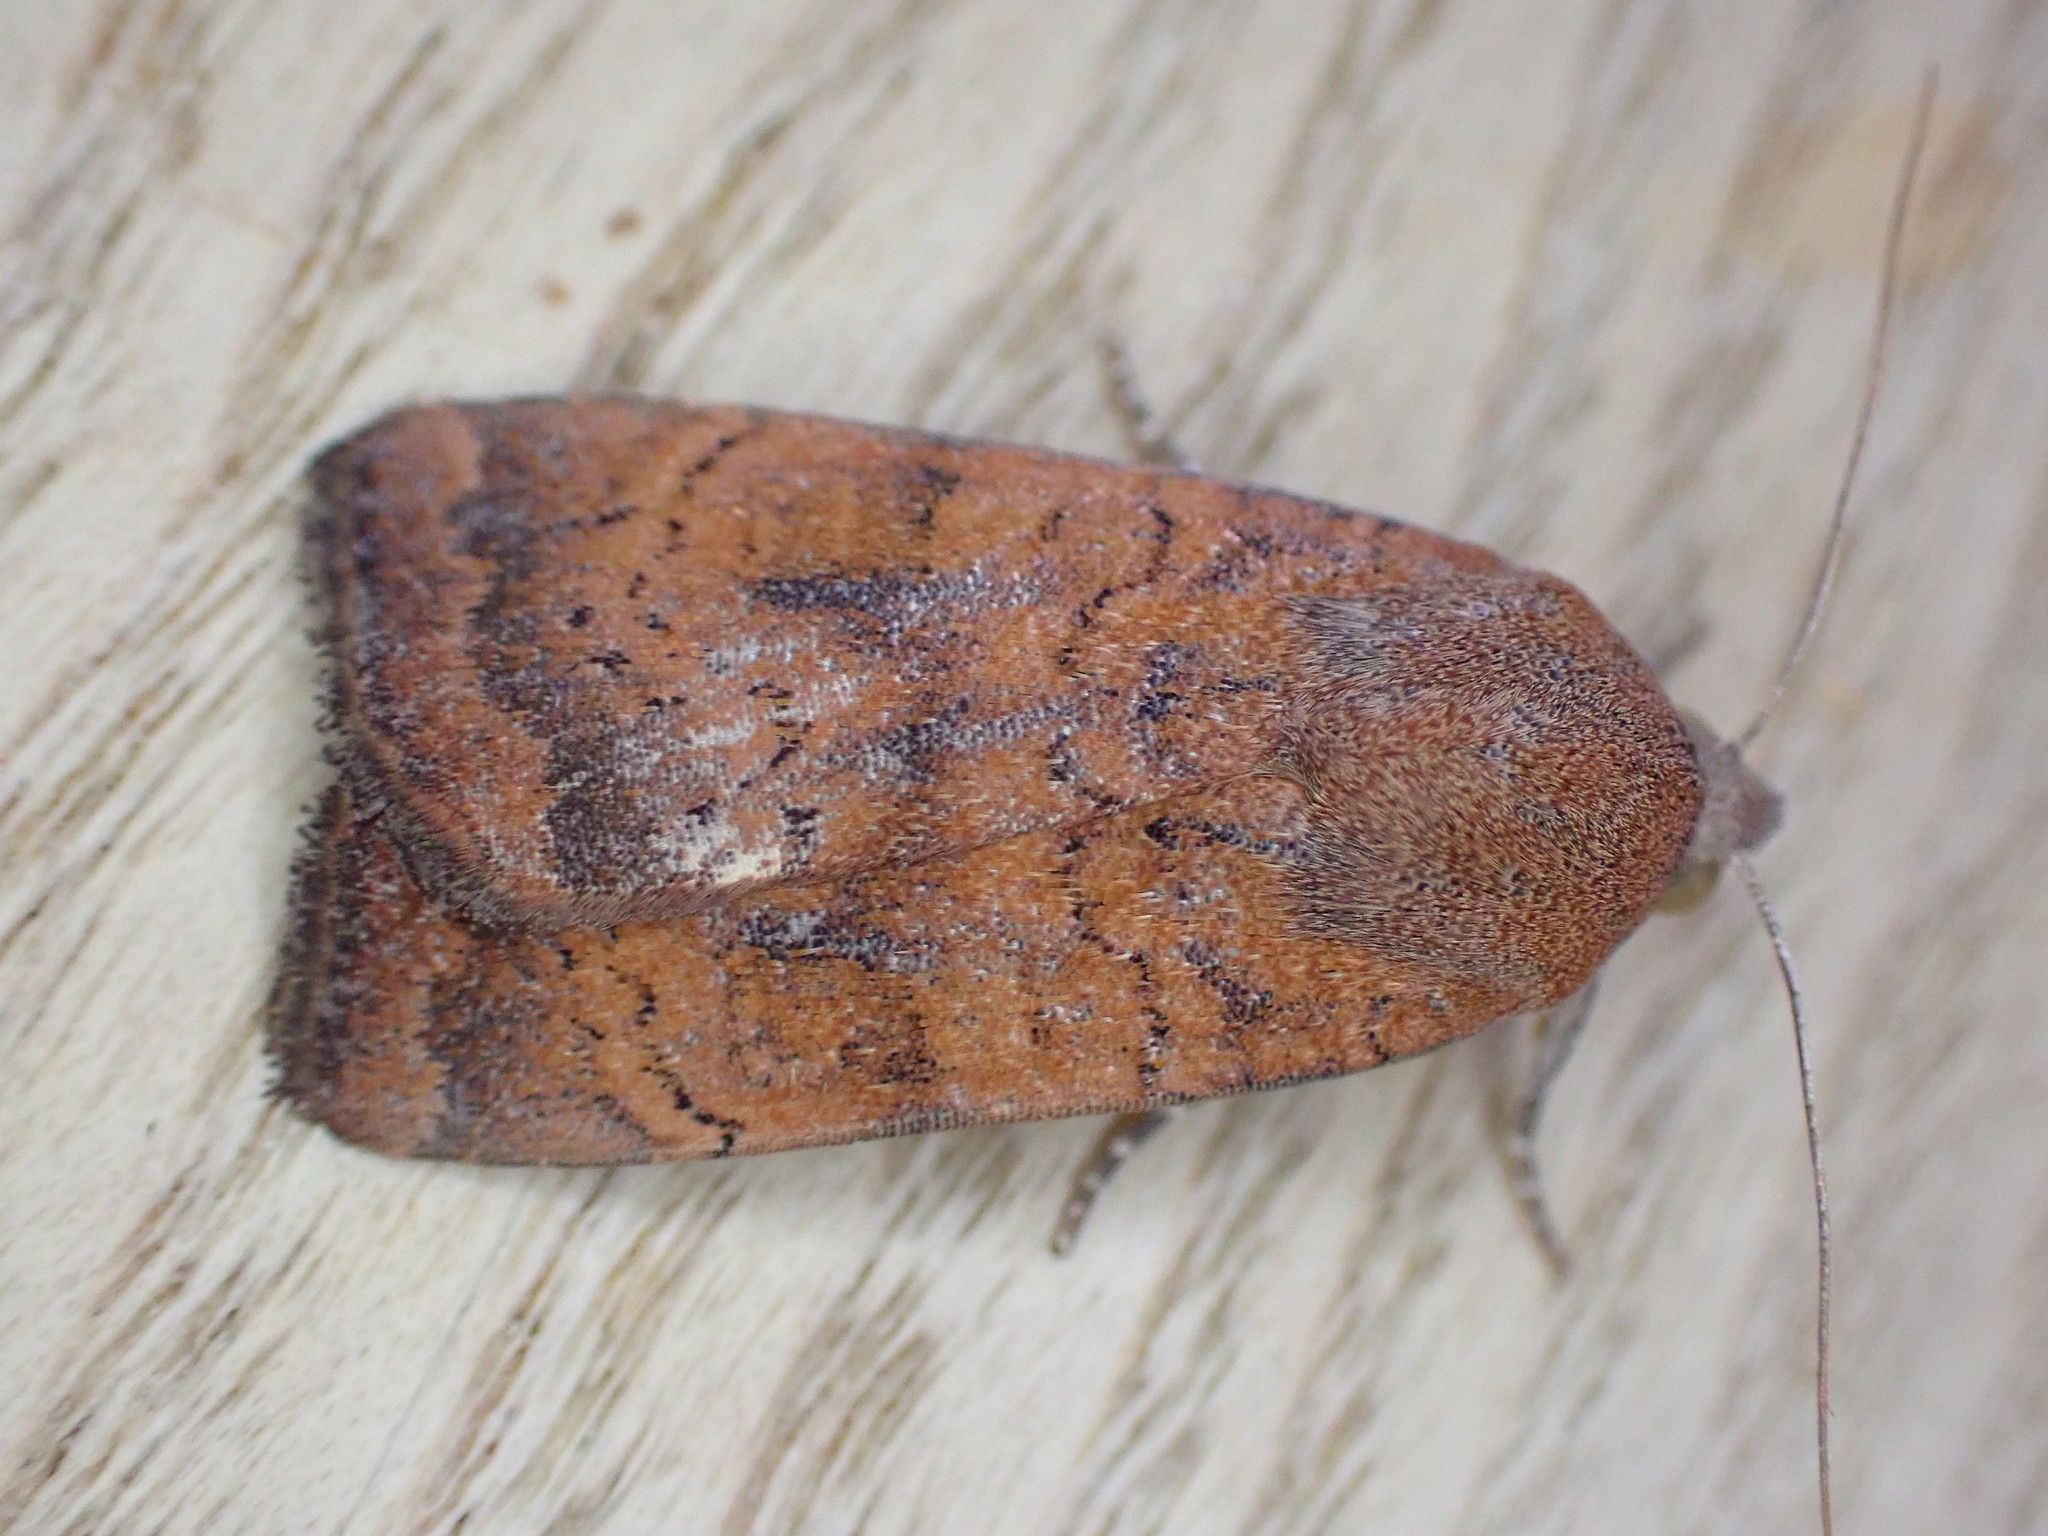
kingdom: Animalia
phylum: Arthropoda
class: Insecta
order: Lepidoptera
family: Noctuidae
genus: Noctua
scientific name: Noctua interjecta
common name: Least yellow underwing
